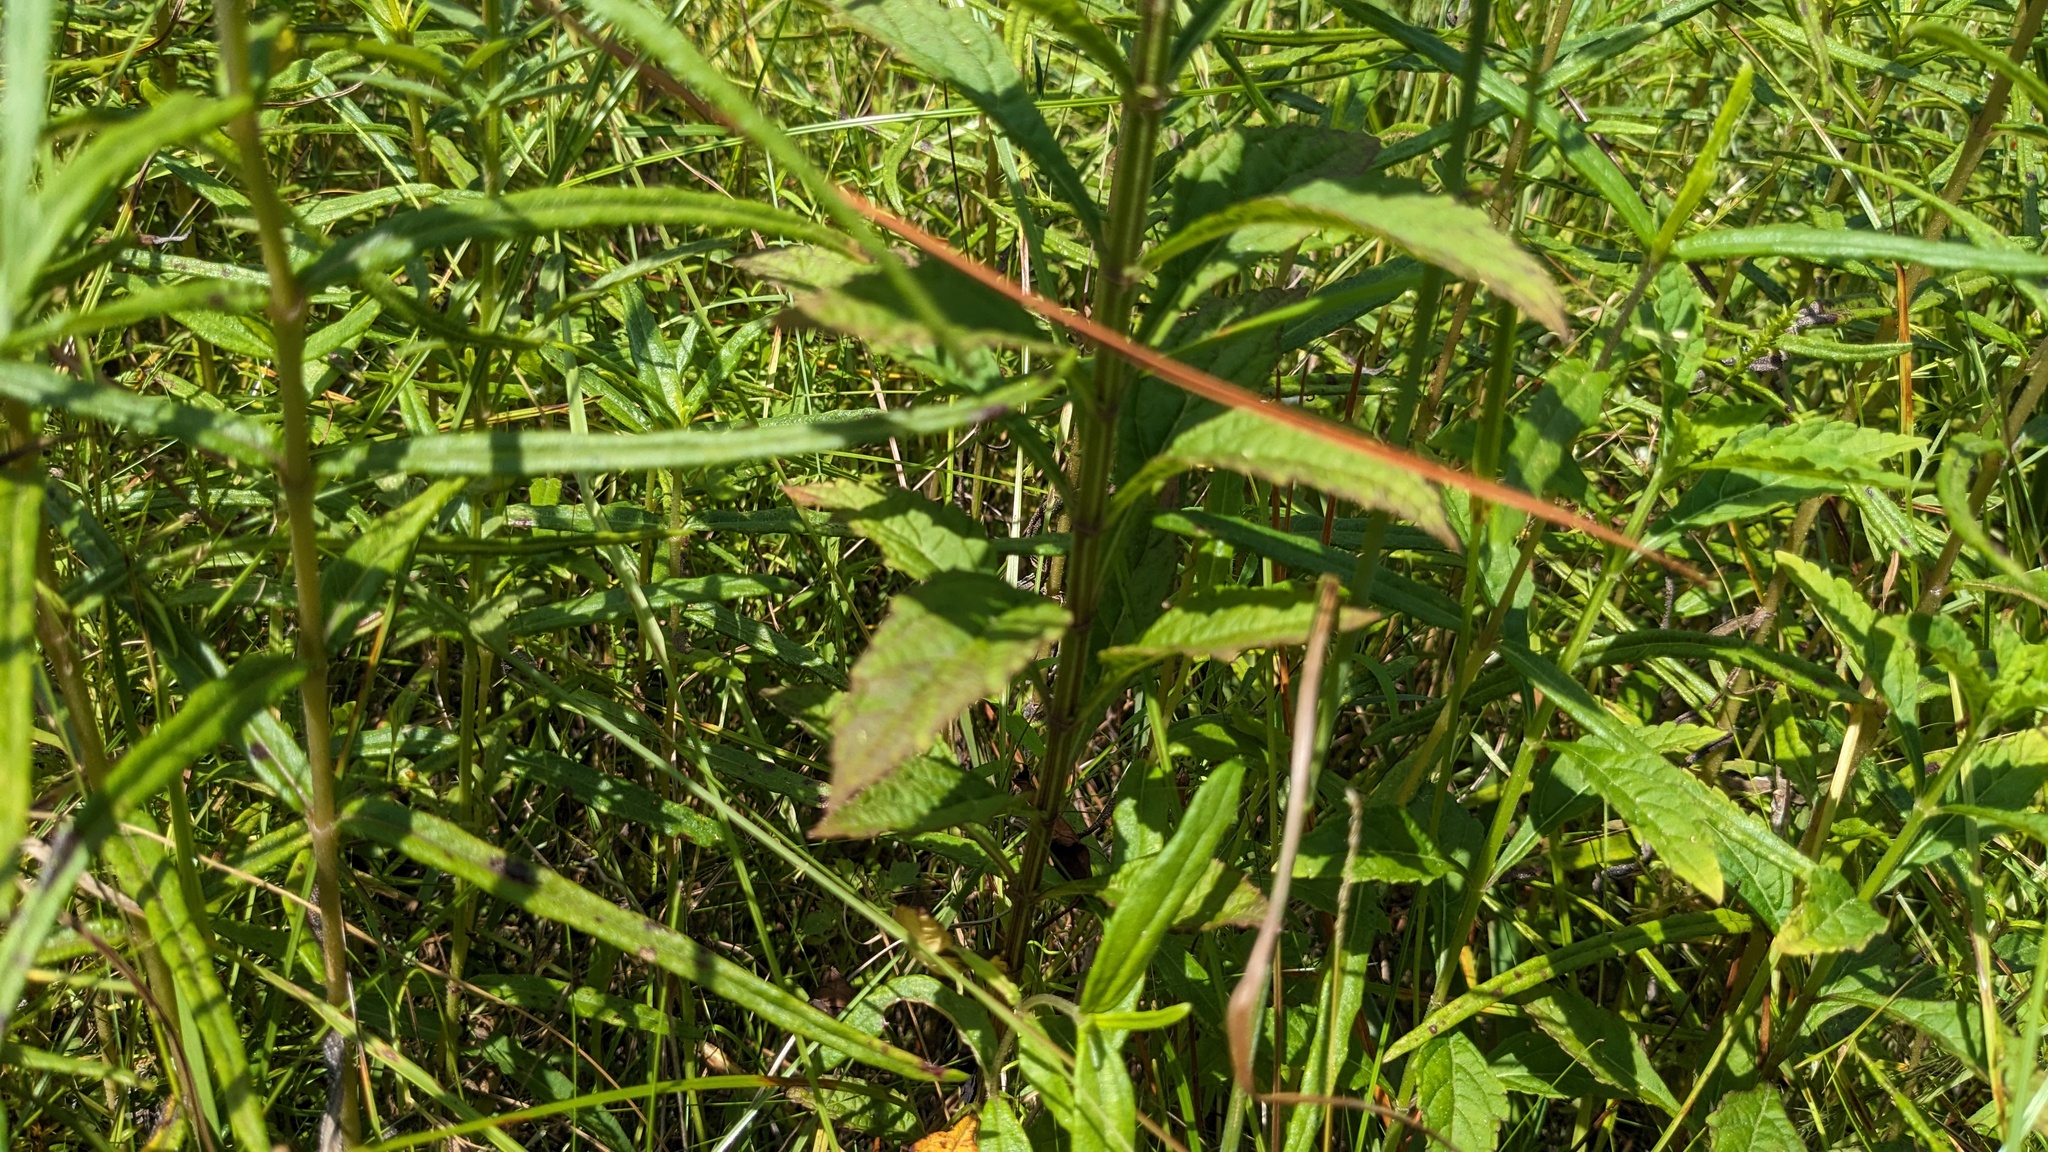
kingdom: Plantae
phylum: Tracheophyta
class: Magnoliopsida
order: Lamiales
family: Lamiaceae
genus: Hyptis
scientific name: Hyptis alata
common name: Cluster bush-mint
